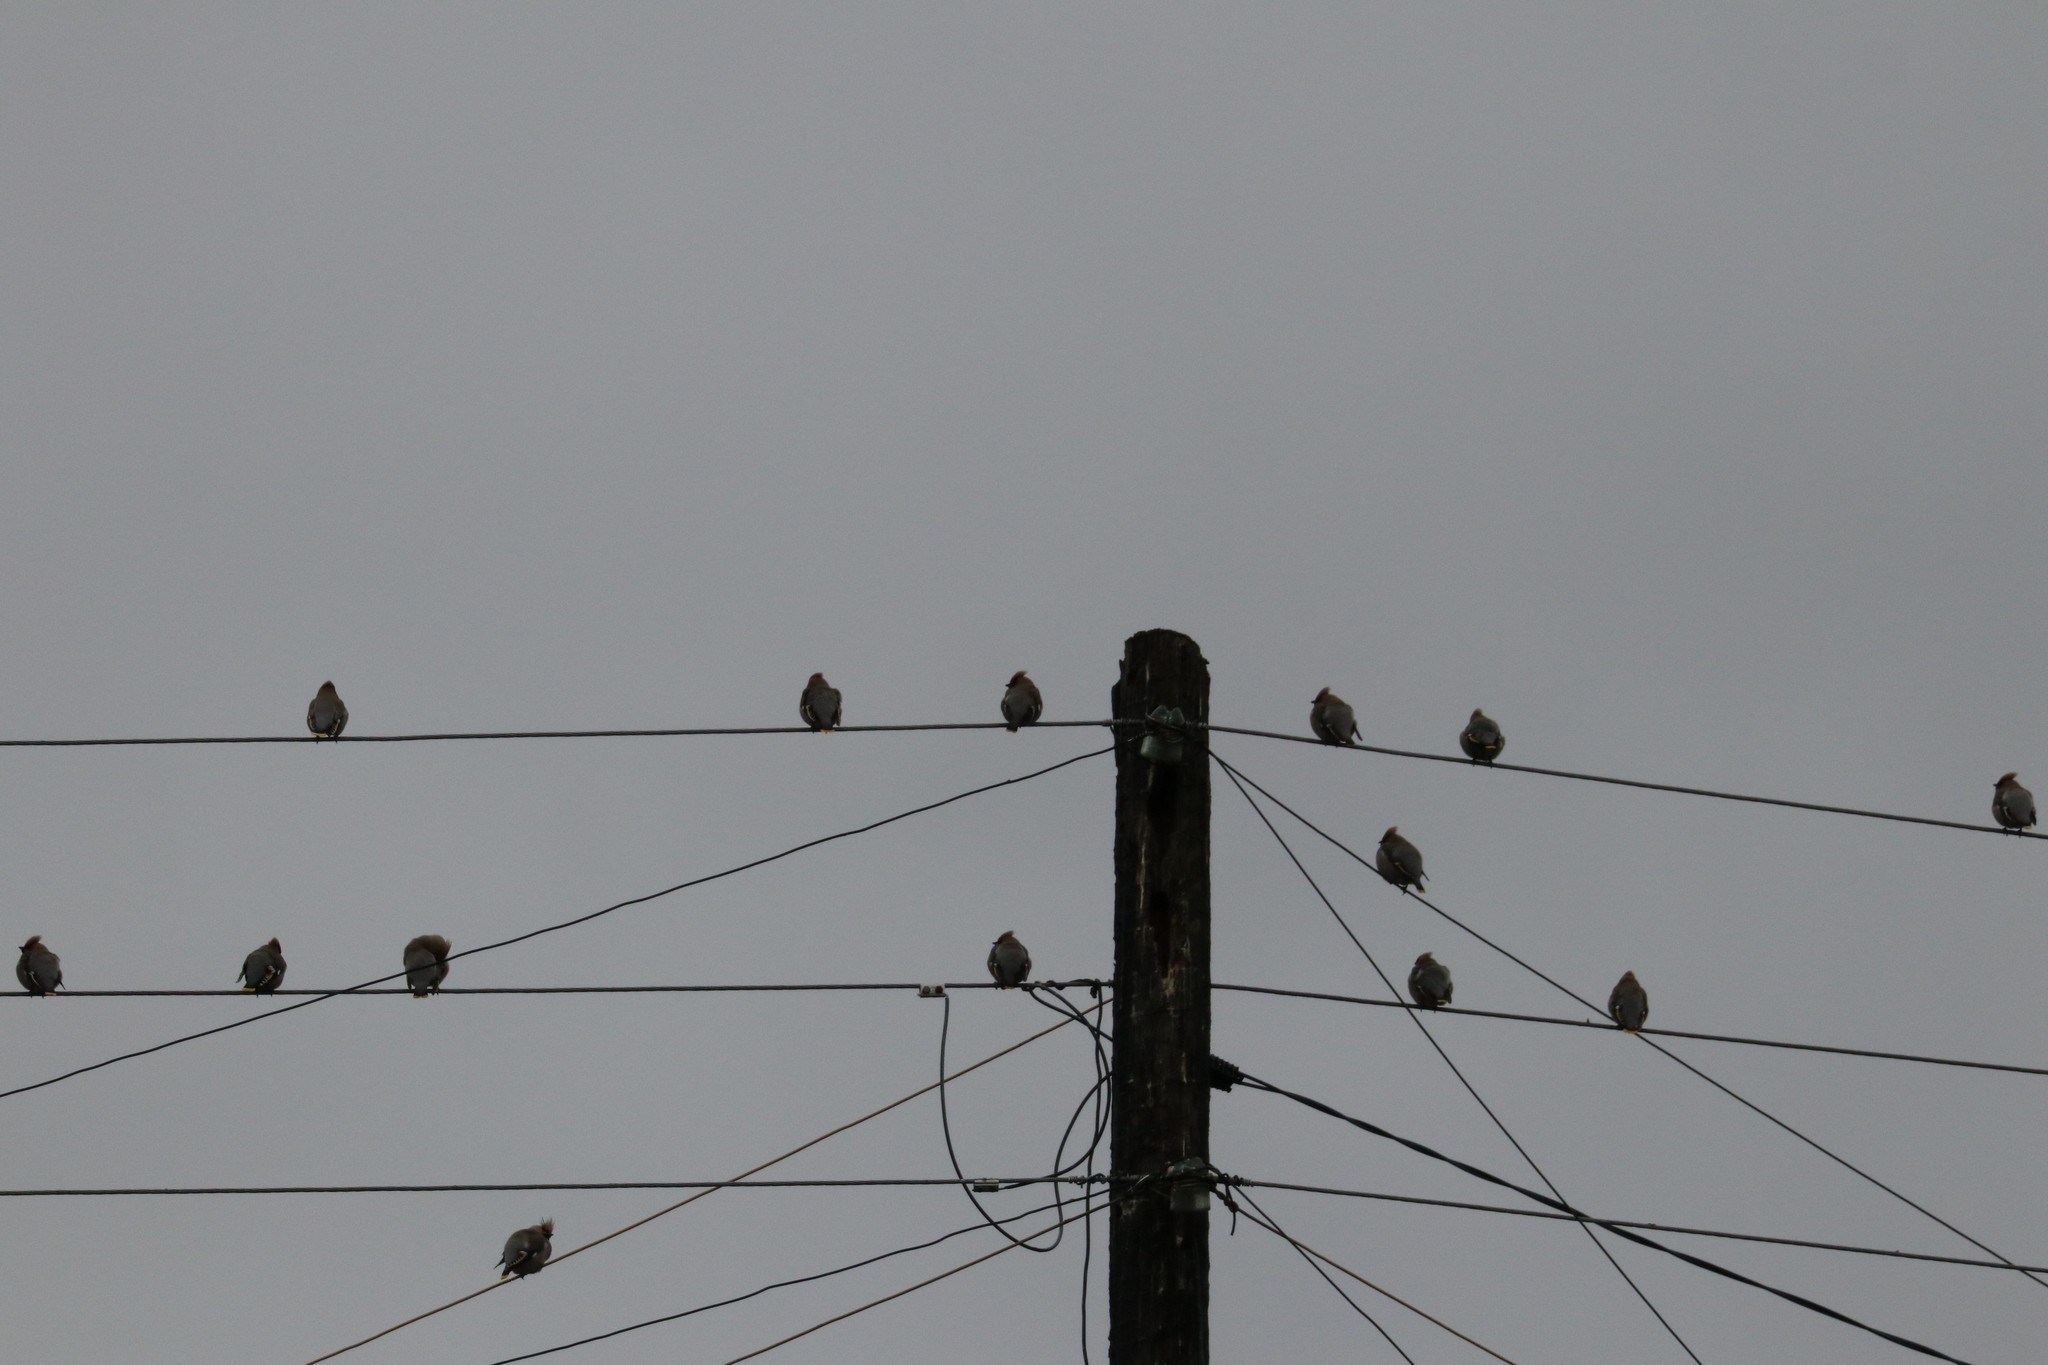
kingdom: Animalia
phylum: Chordata
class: Aves
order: Passeriformes
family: Bombycillidae
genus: Bombycilla
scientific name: Bombycilla garrulus
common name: Bohemian waxwing
